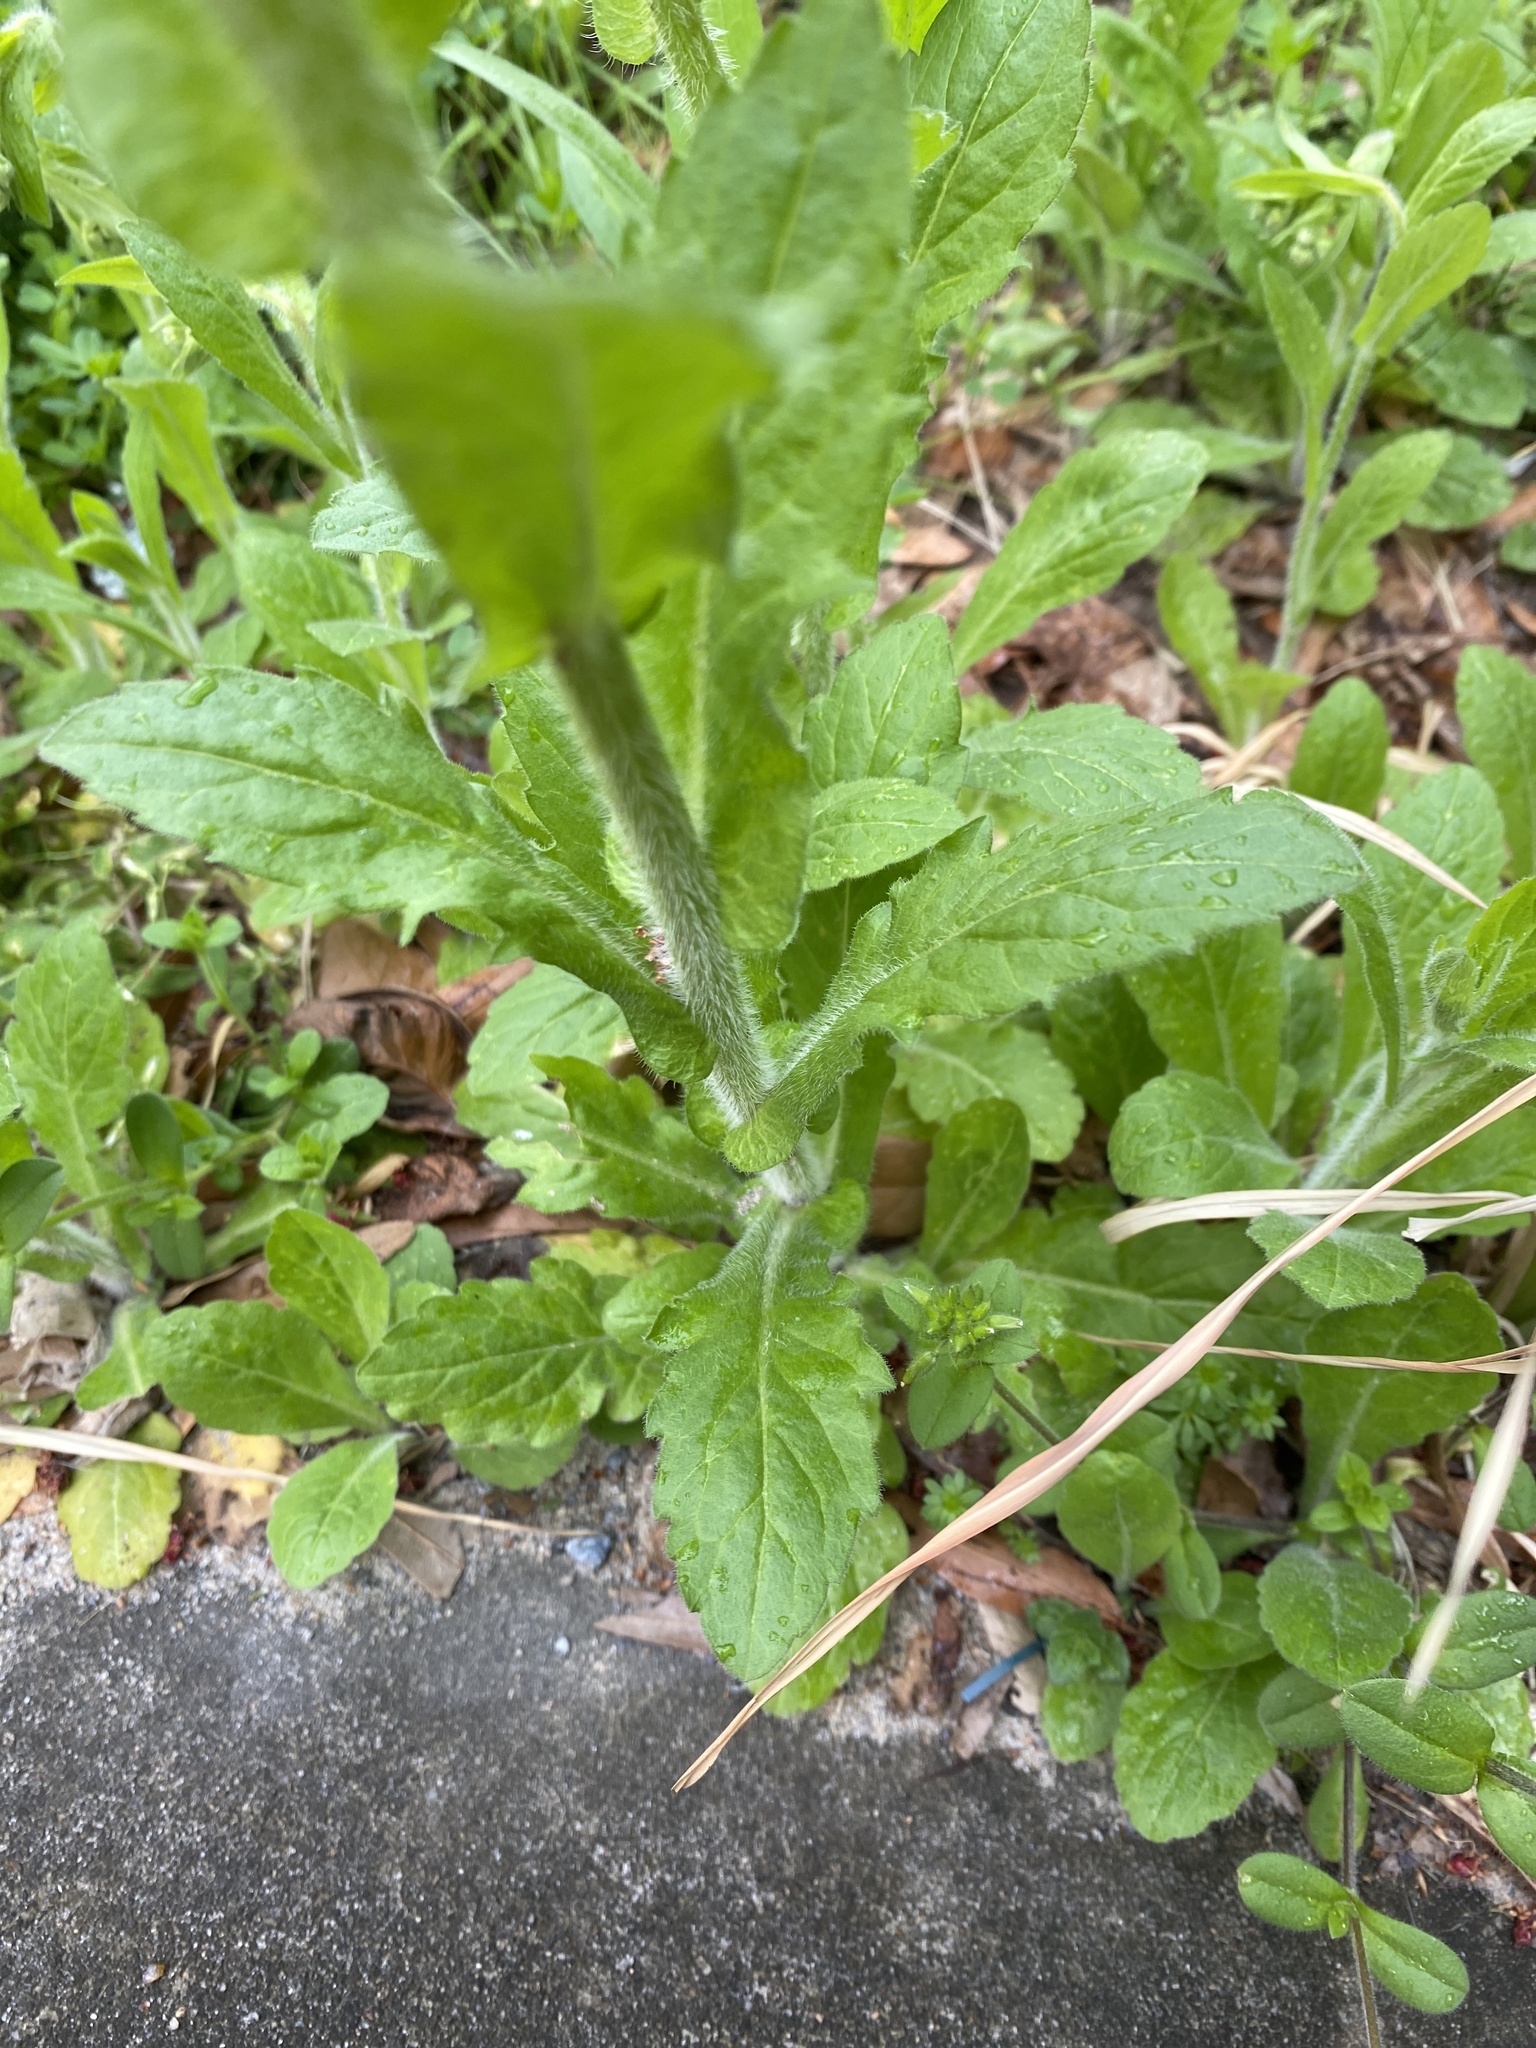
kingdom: Plantae
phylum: Tracheophyta
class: Magnoliopsida
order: Asterales
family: Asteraceae
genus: Erigeron
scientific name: Erigeron philadelphicus
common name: Robin's-plantain
